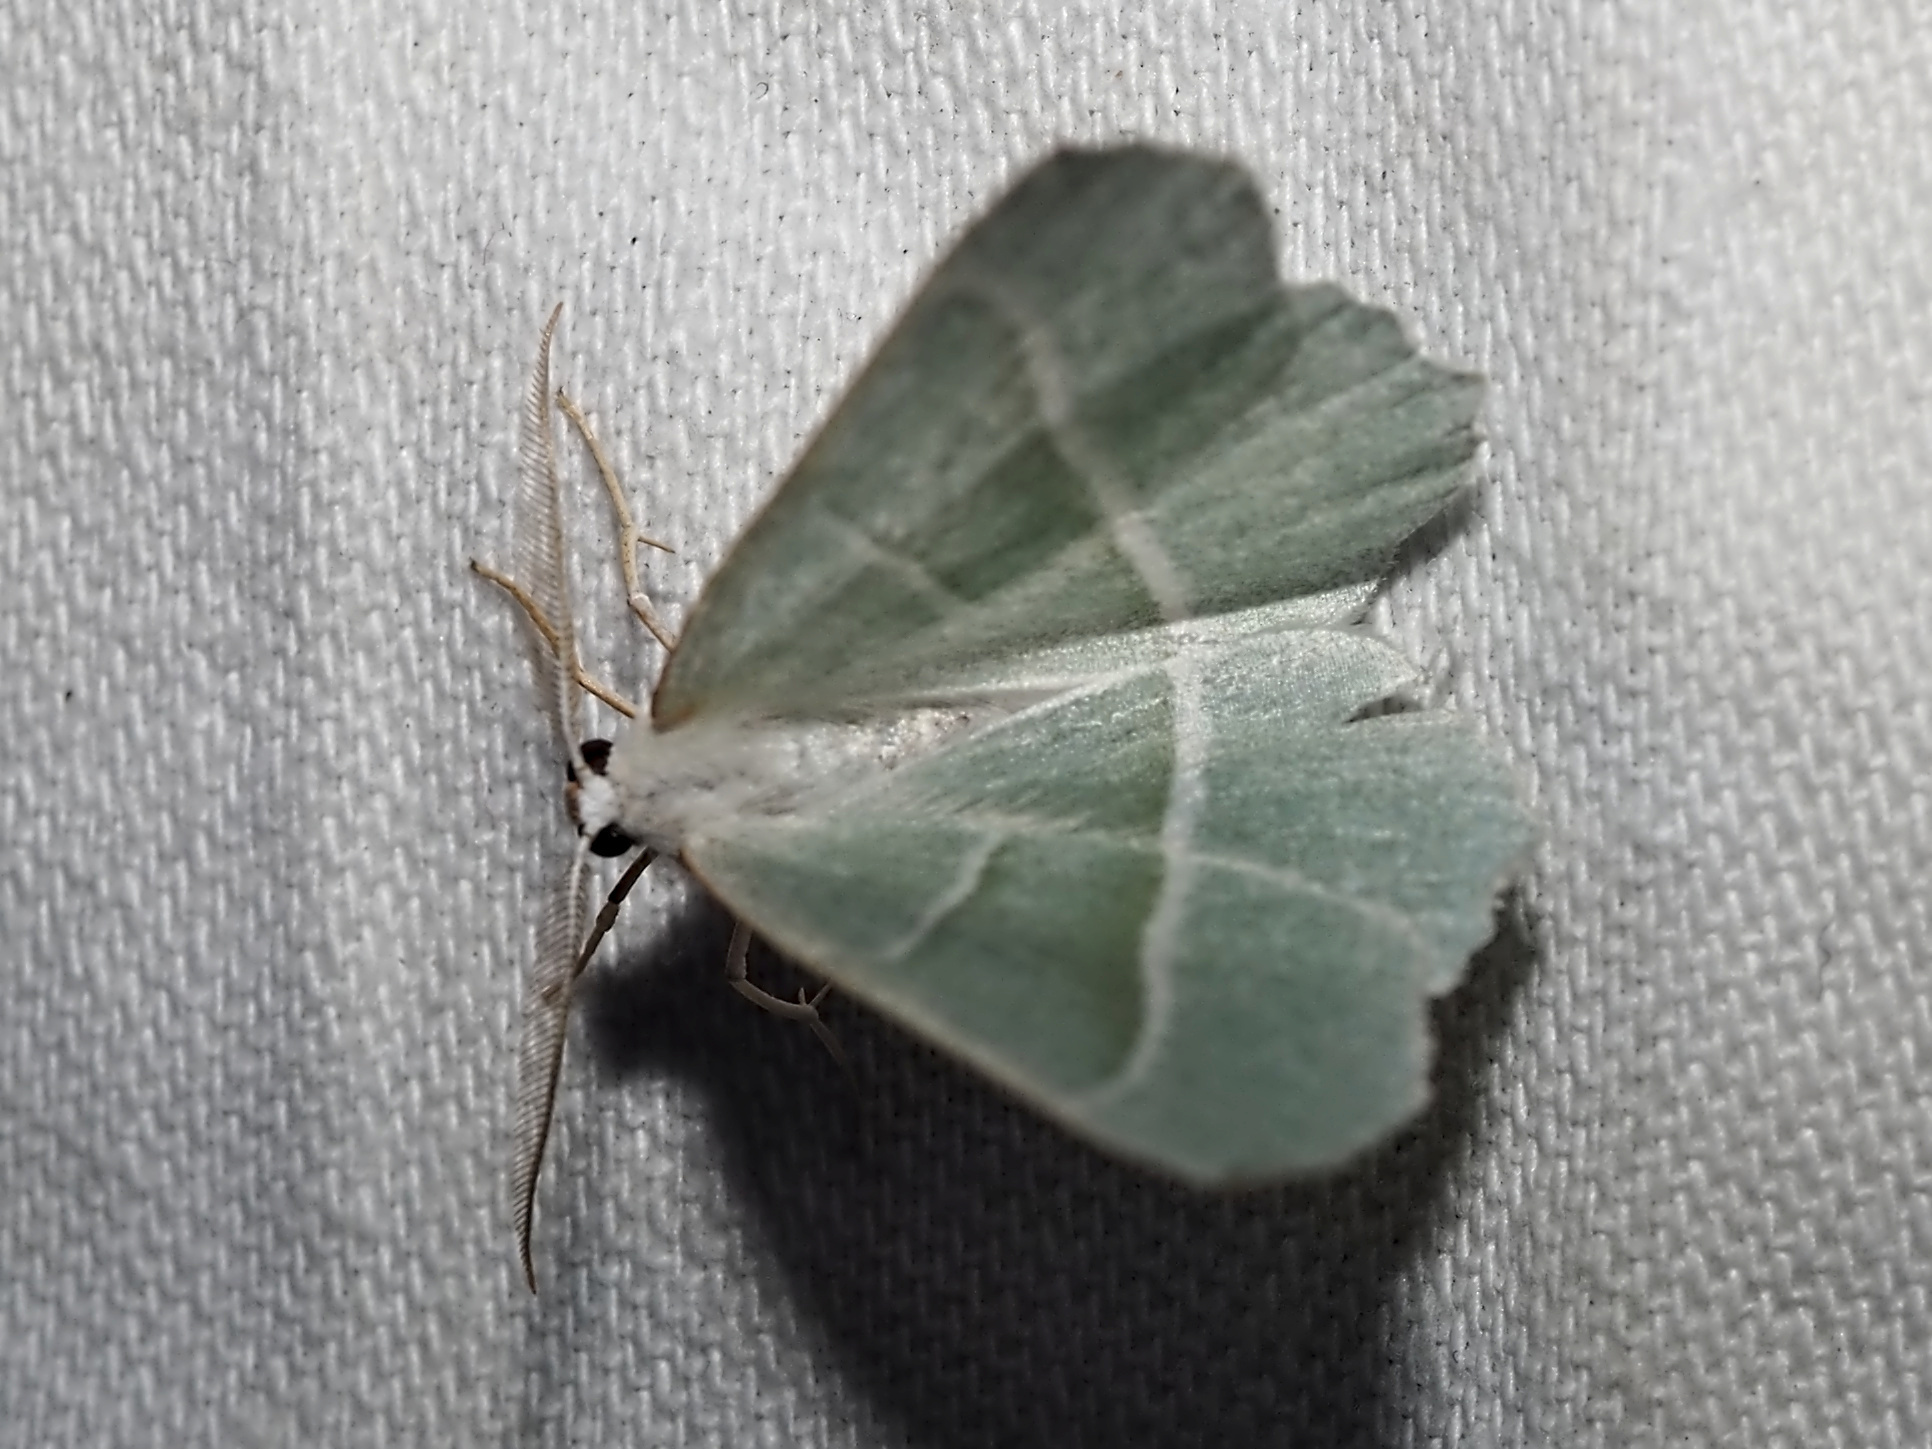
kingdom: Animalia
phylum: Arthropoda
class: Insecta
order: Lepidoptera
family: Geometridae
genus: Campaea
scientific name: Campaea margaritaria
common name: Light emerald
